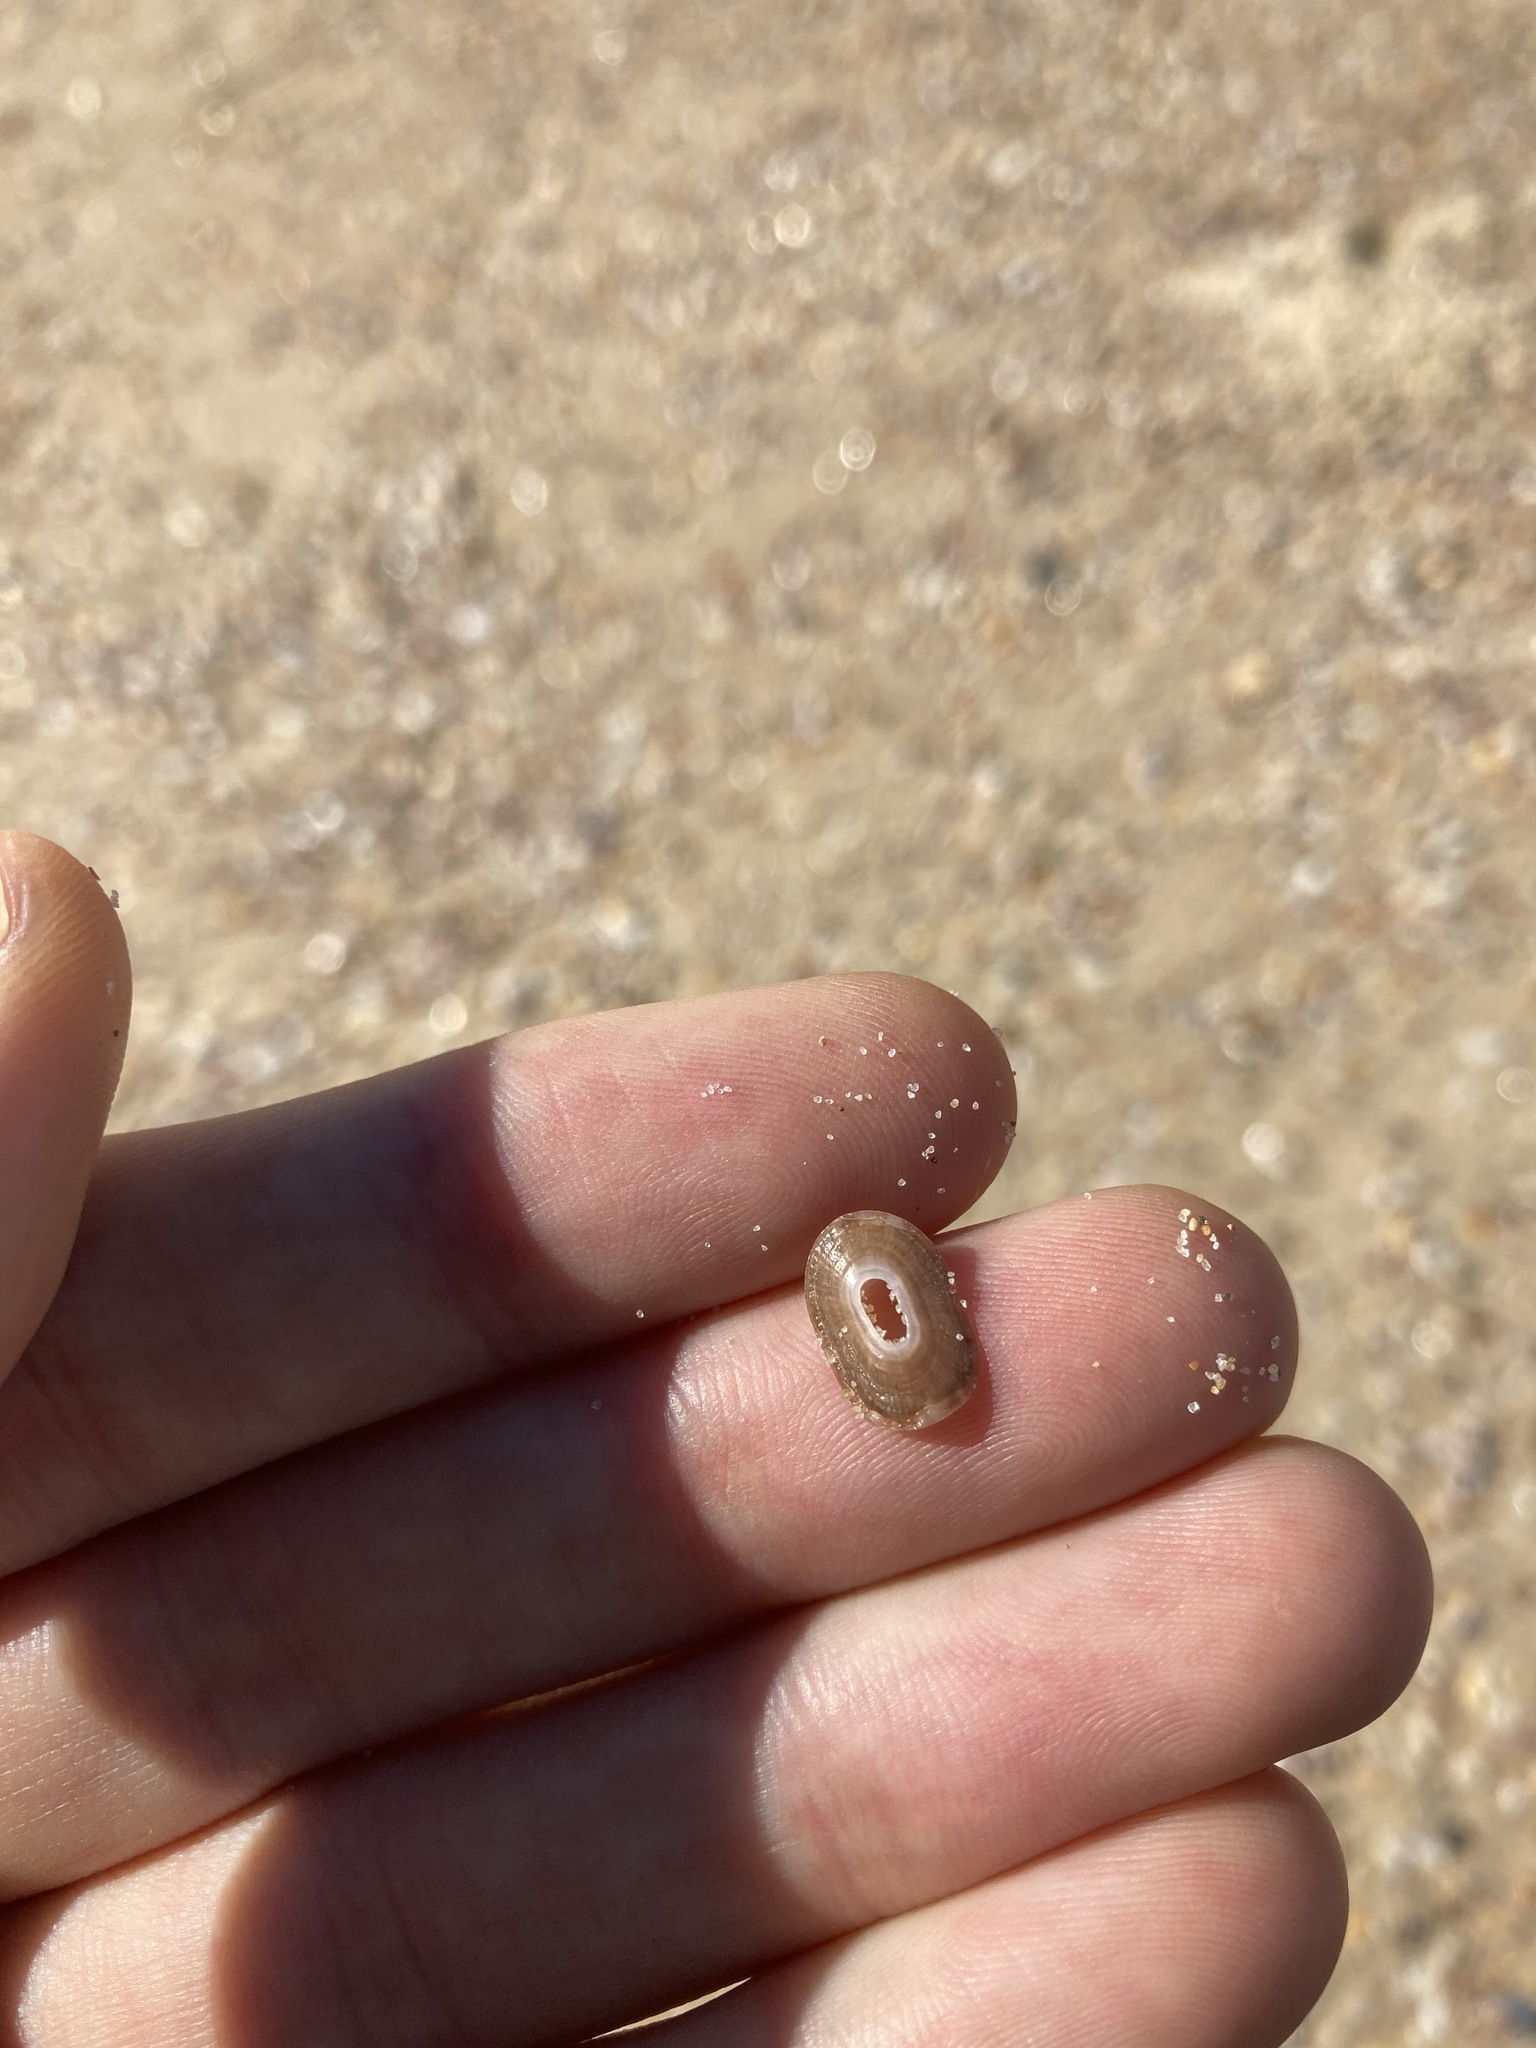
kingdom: Animalia
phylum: Mollusca
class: Gastropoda
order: Lepetellida
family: Fissurellidae
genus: Amblychilepas
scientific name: Amblychilepas nigrita
